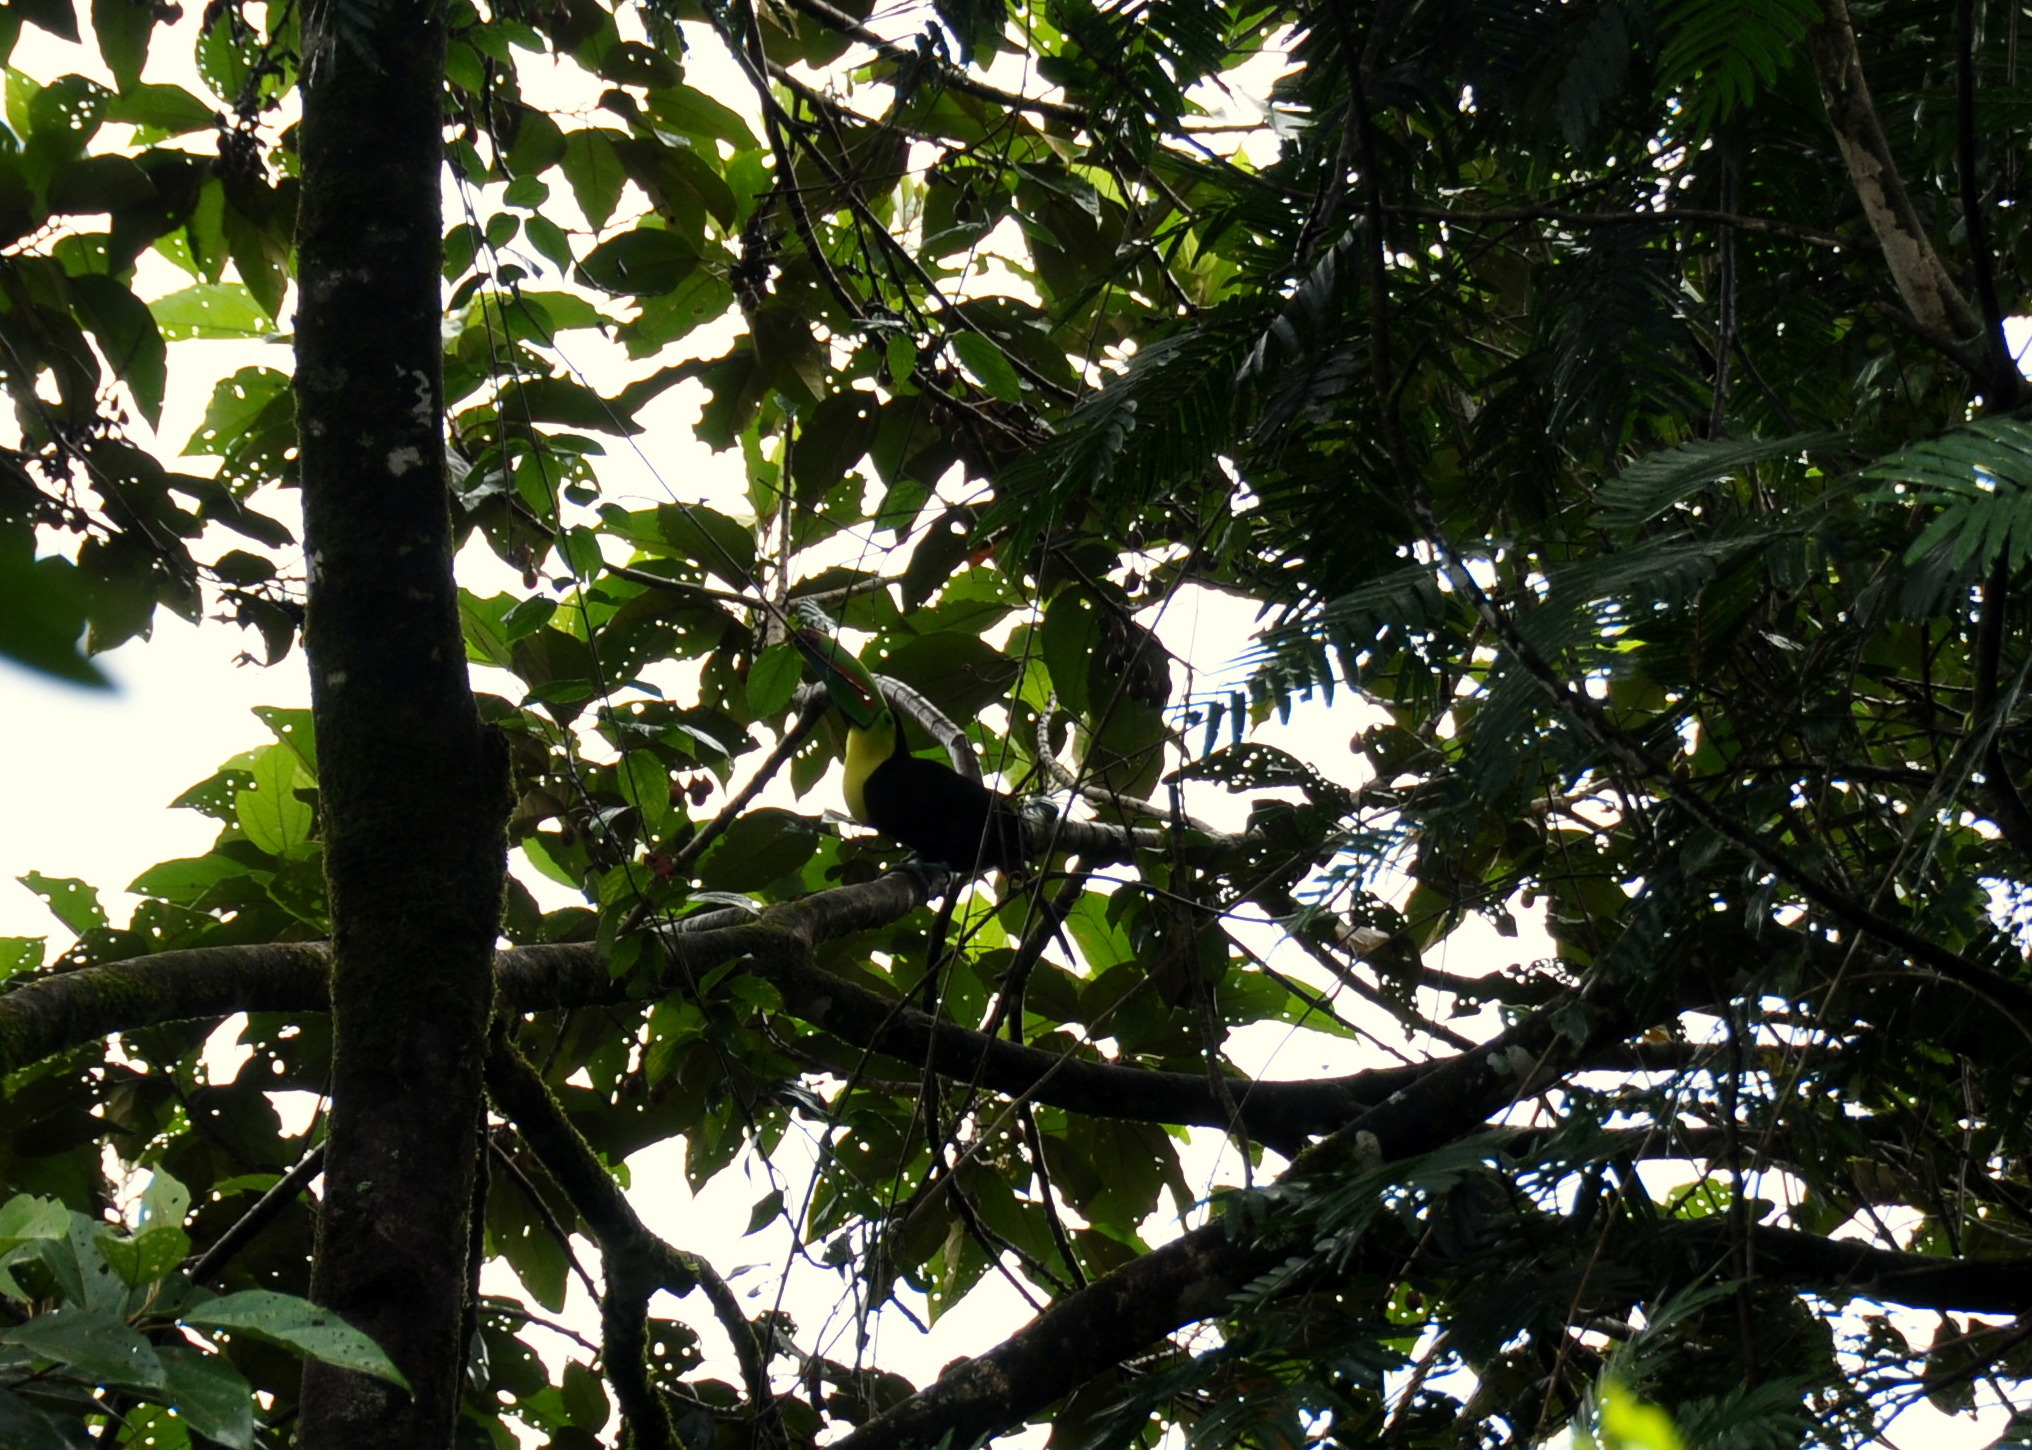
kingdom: Animalia
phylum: Chordata
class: Aves
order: Piciformes
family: Ramphastidae
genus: Ramphastos
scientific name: Ramphastos sulfuratus
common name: Keel-billed toucan
